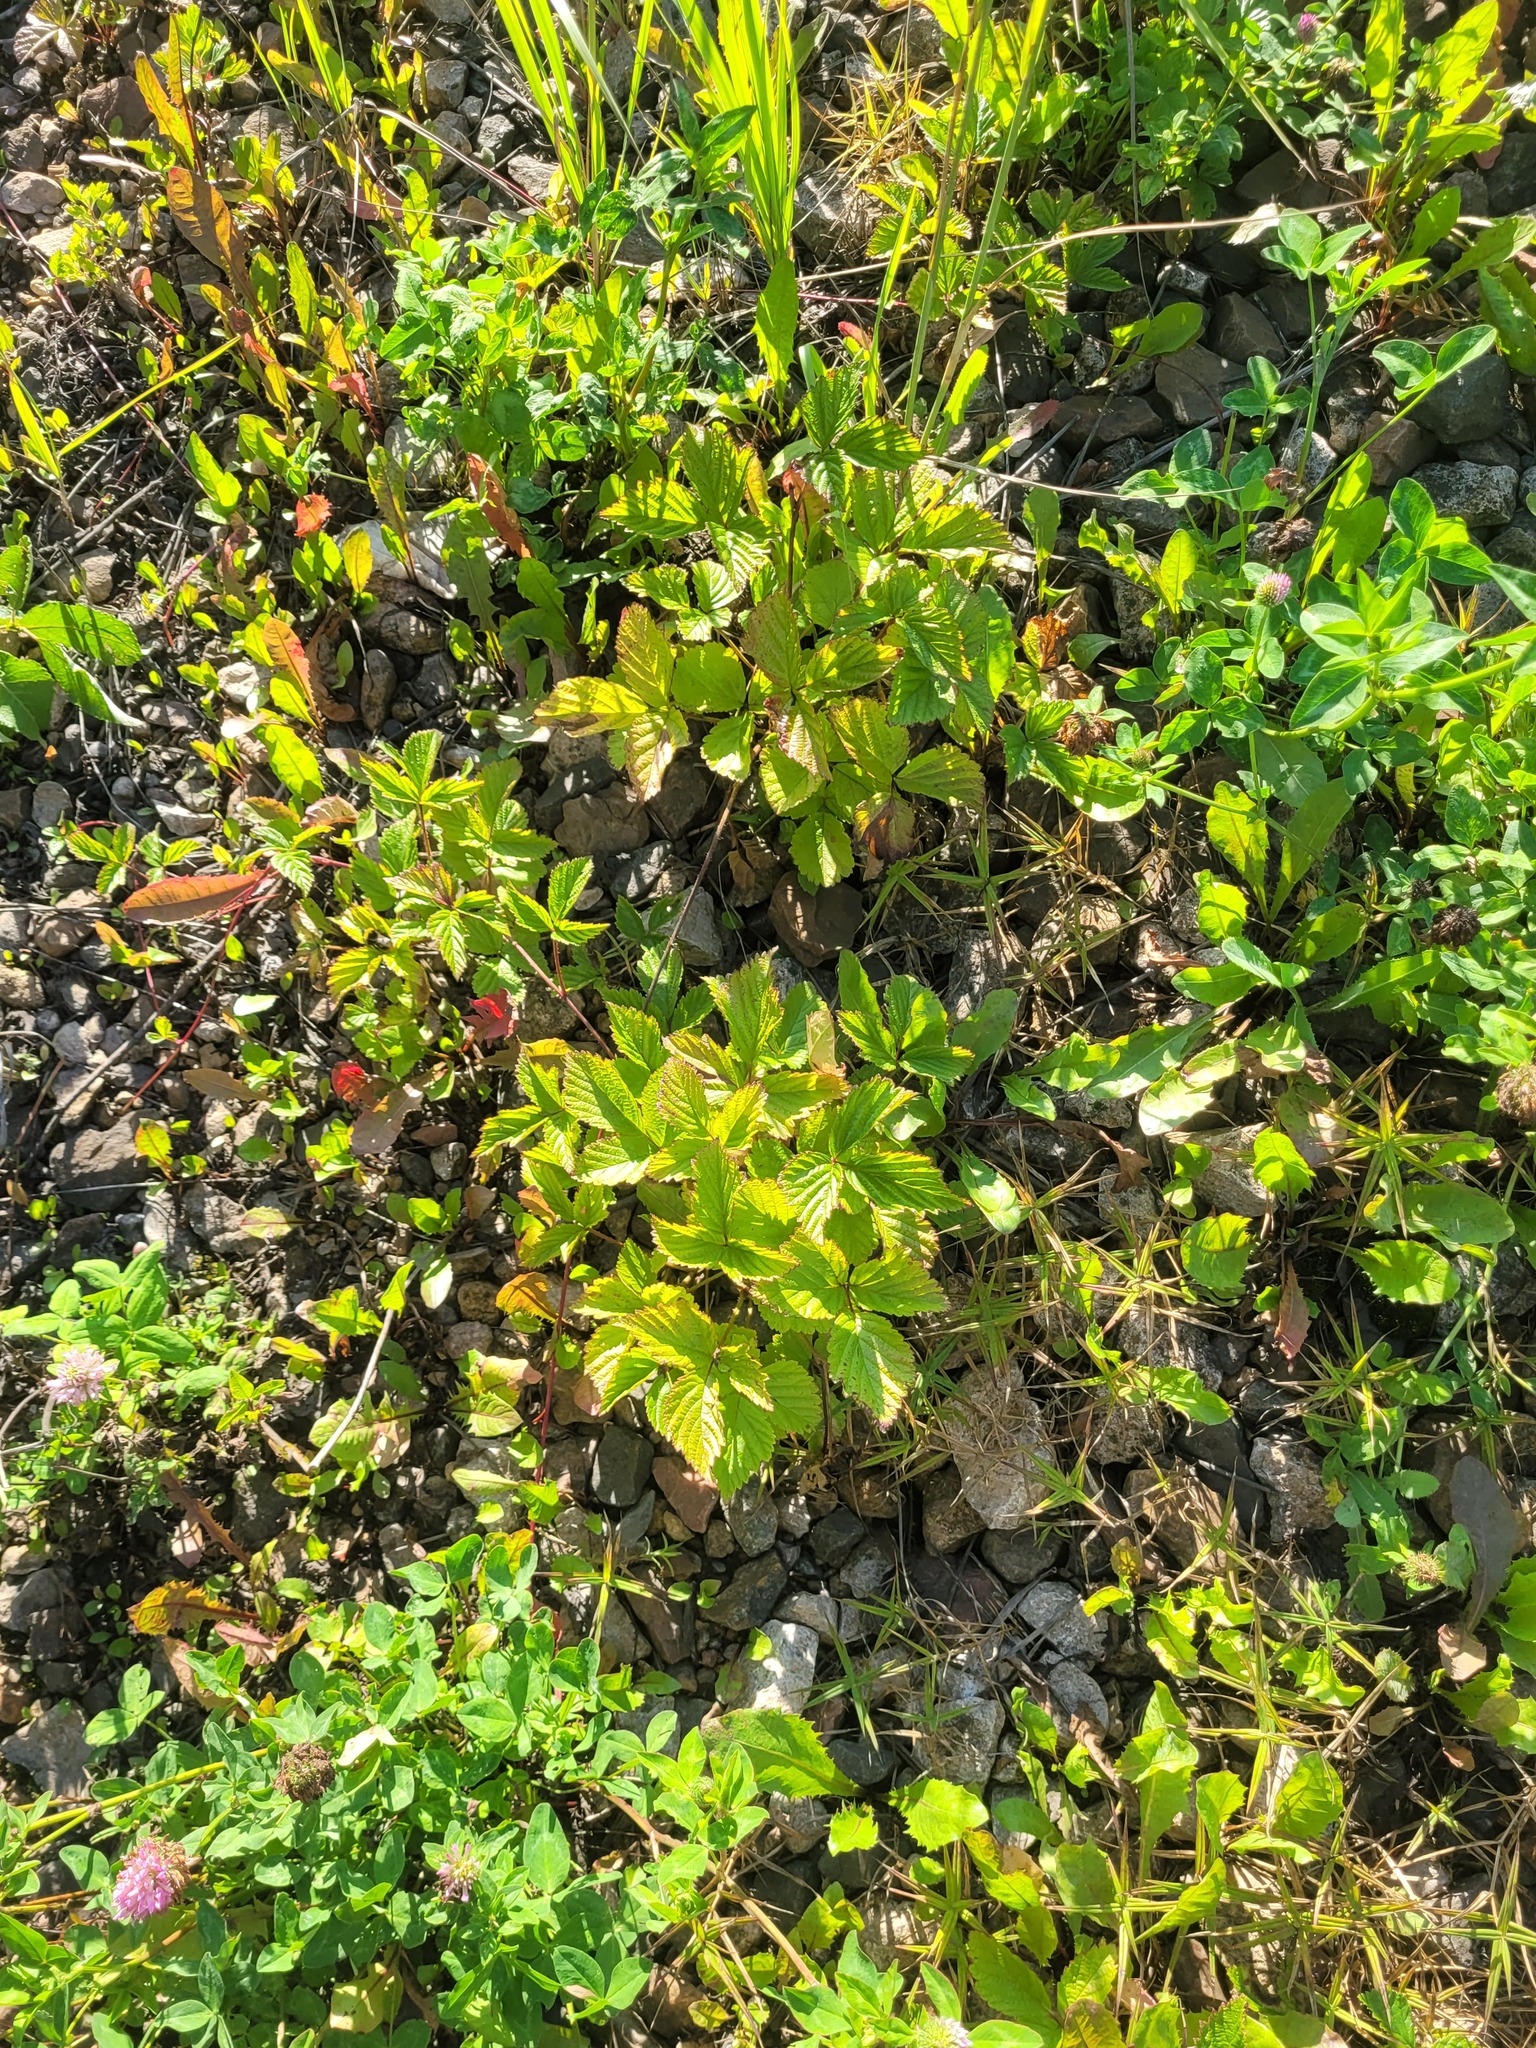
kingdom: Plantae
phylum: Tracheophyta
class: Magnoliopsida
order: Rosales
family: Rosaceae
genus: Rubus
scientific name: Rubus saxatilis
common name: Stone bramble
